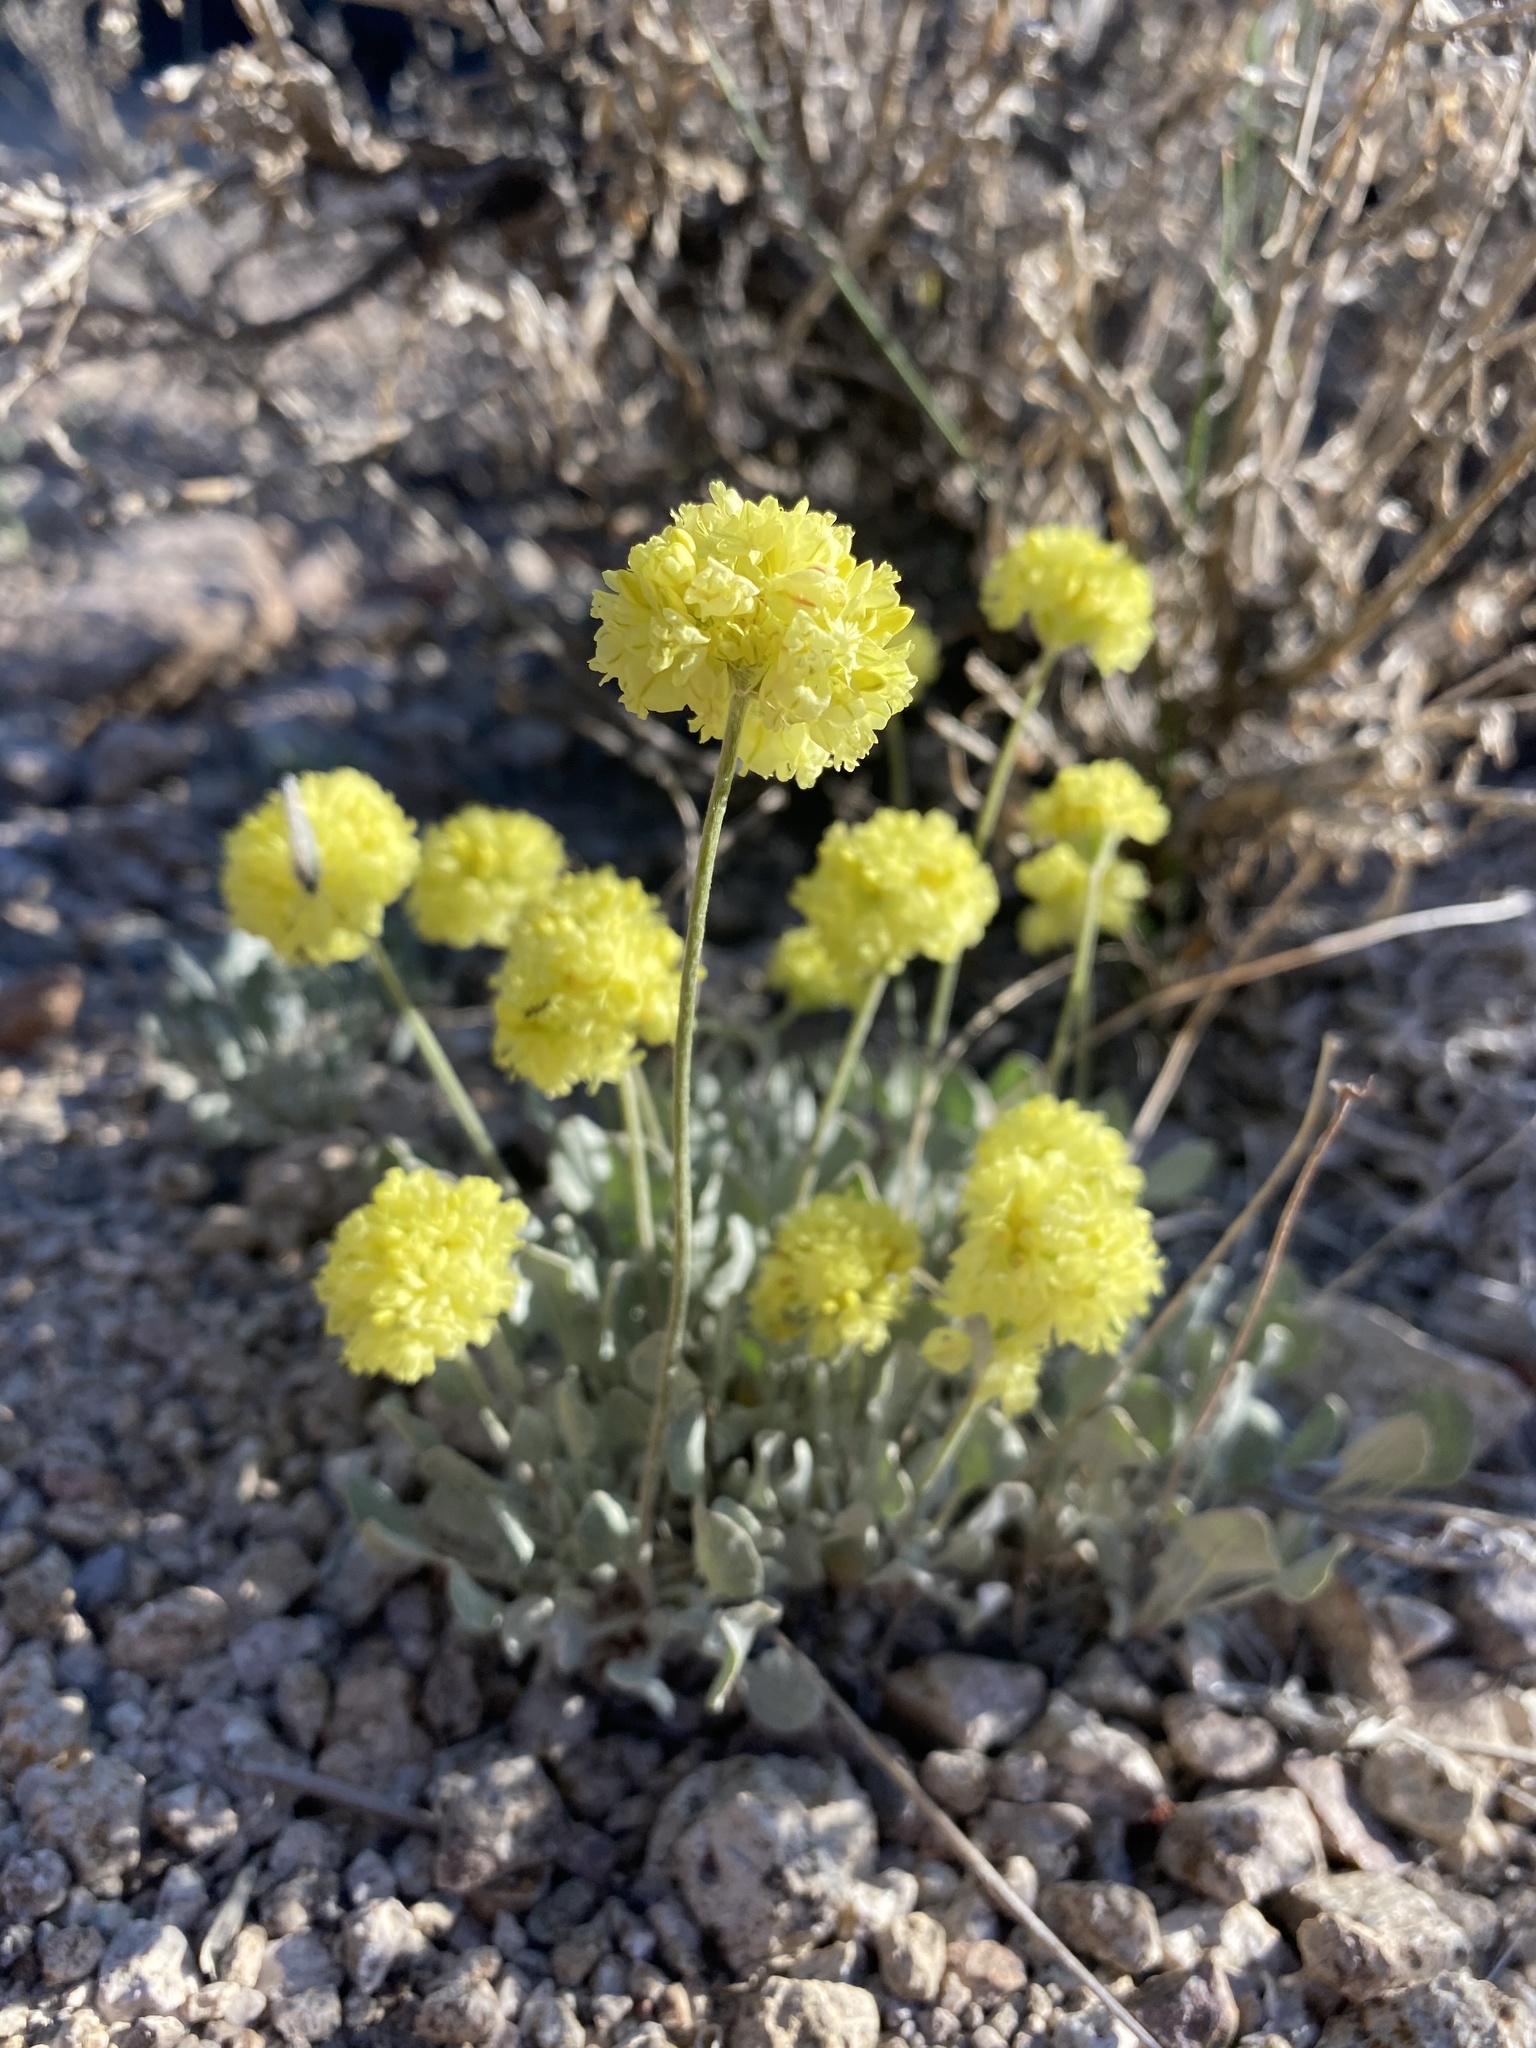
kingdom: Plantae
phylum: Tracheophyta
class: Magnoliopsida
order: Caryophyllales
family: Polygonaceae
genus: Eriogonum
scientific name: Eriogonum ovalifolium
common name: Cushion buckwheat
